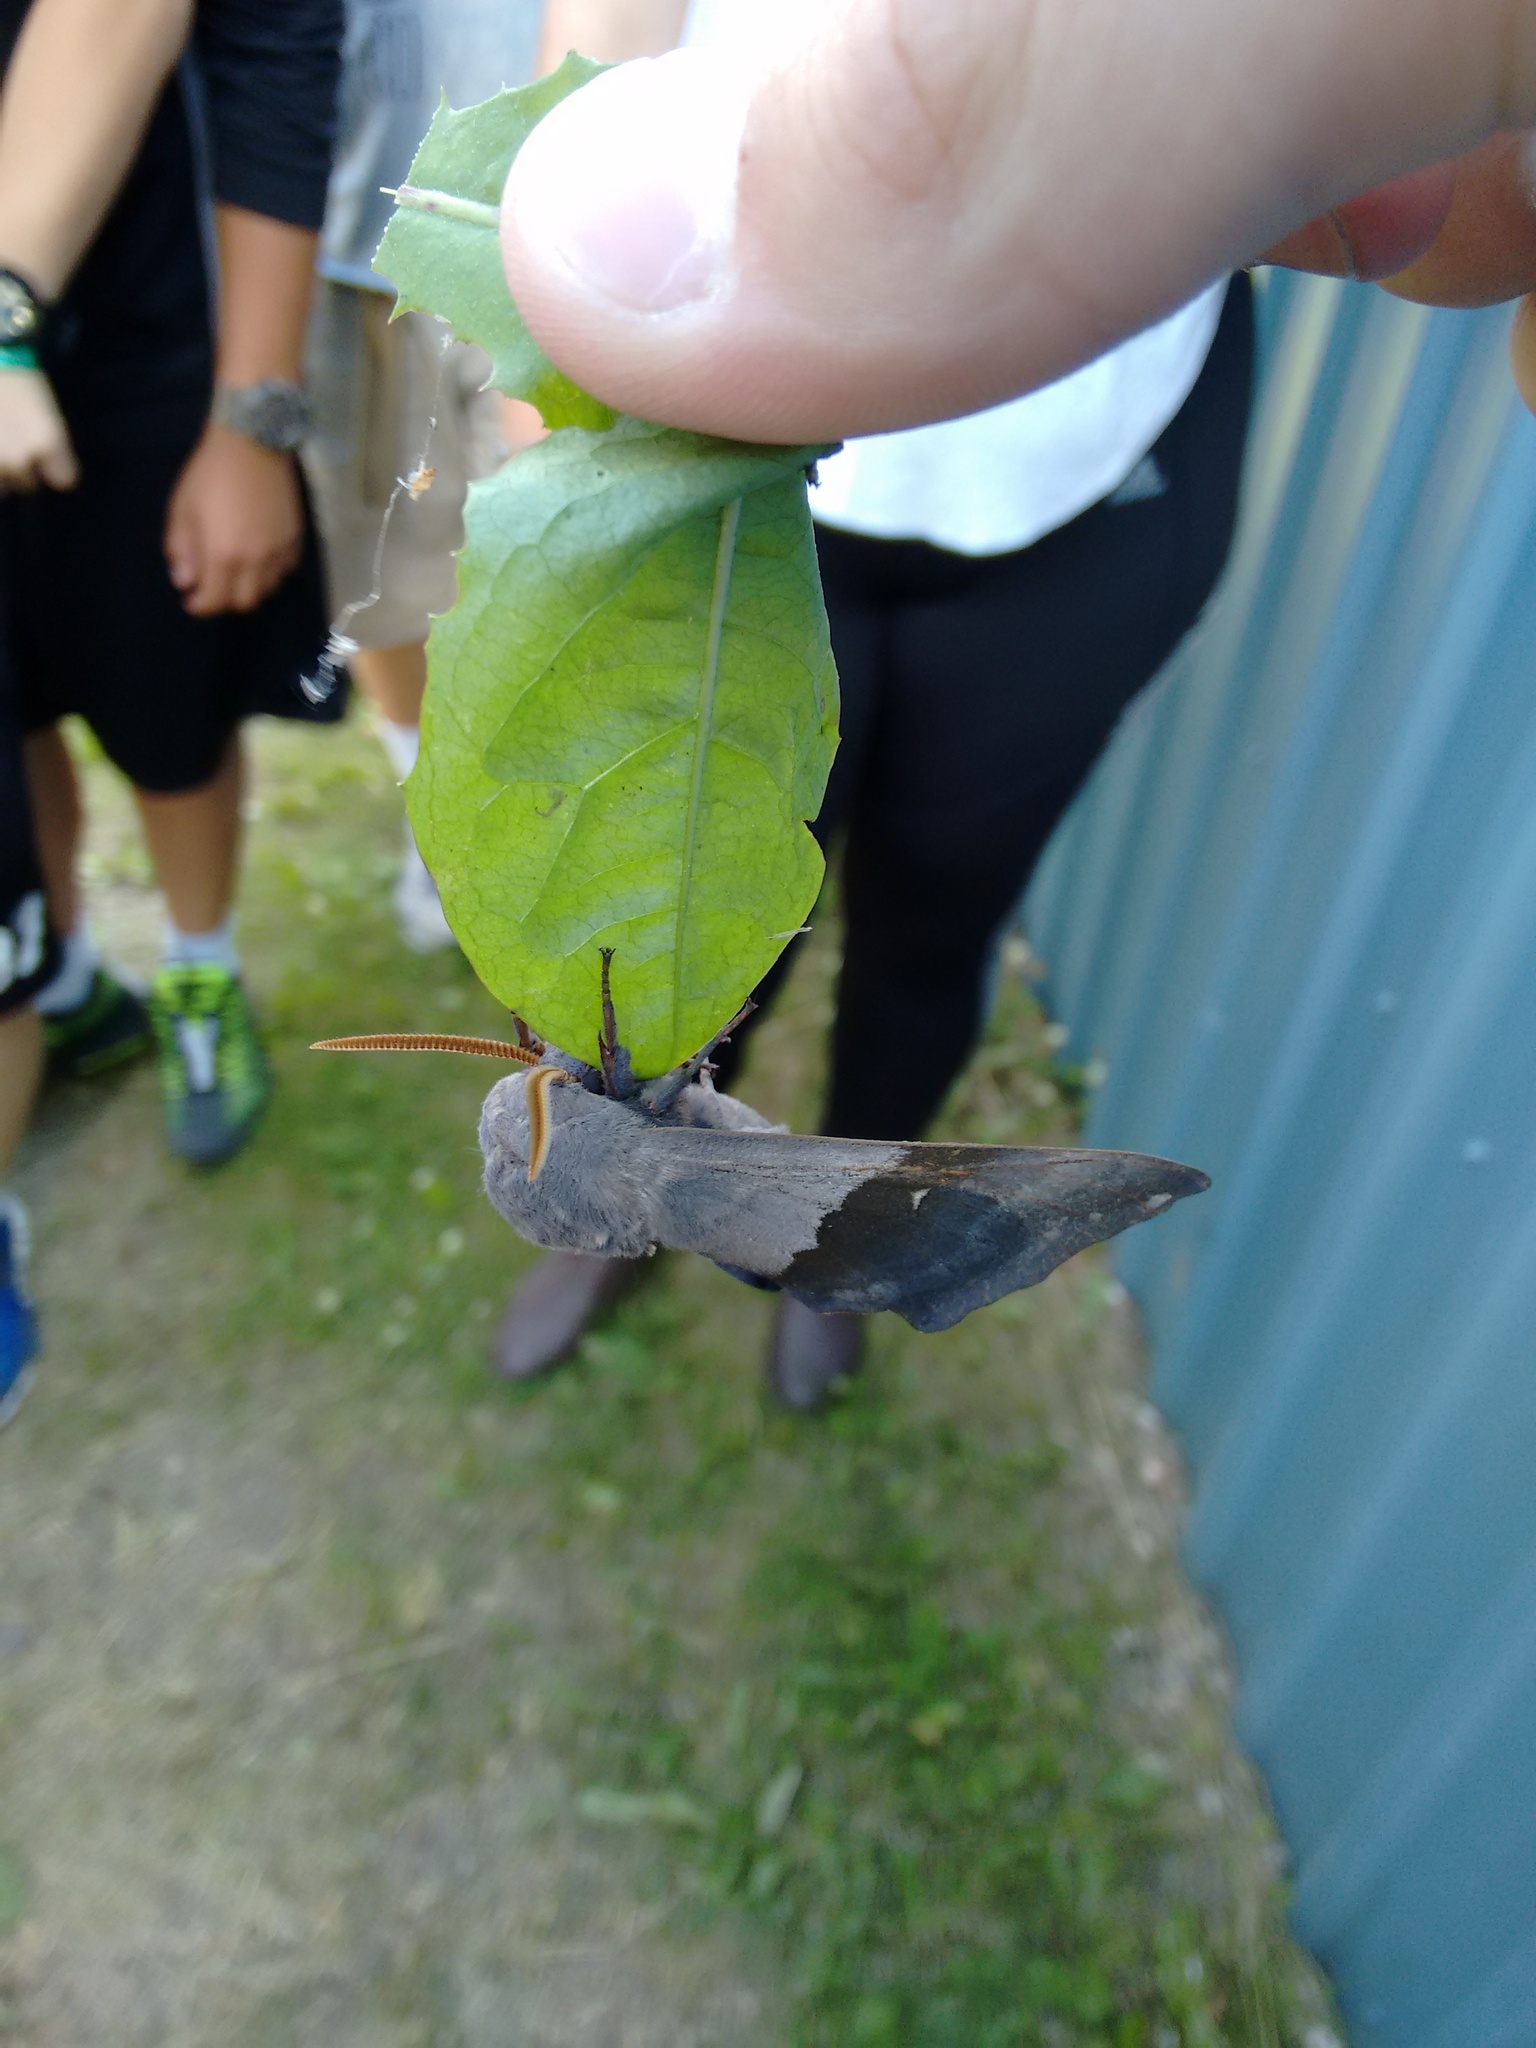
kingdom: Animalia
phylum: Arthropoda
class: Insecta
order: Lepidoptera
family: Sphingidae
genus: Pachysphinx
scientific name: Pachysphinx modesta
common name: Big poplar sphinx
